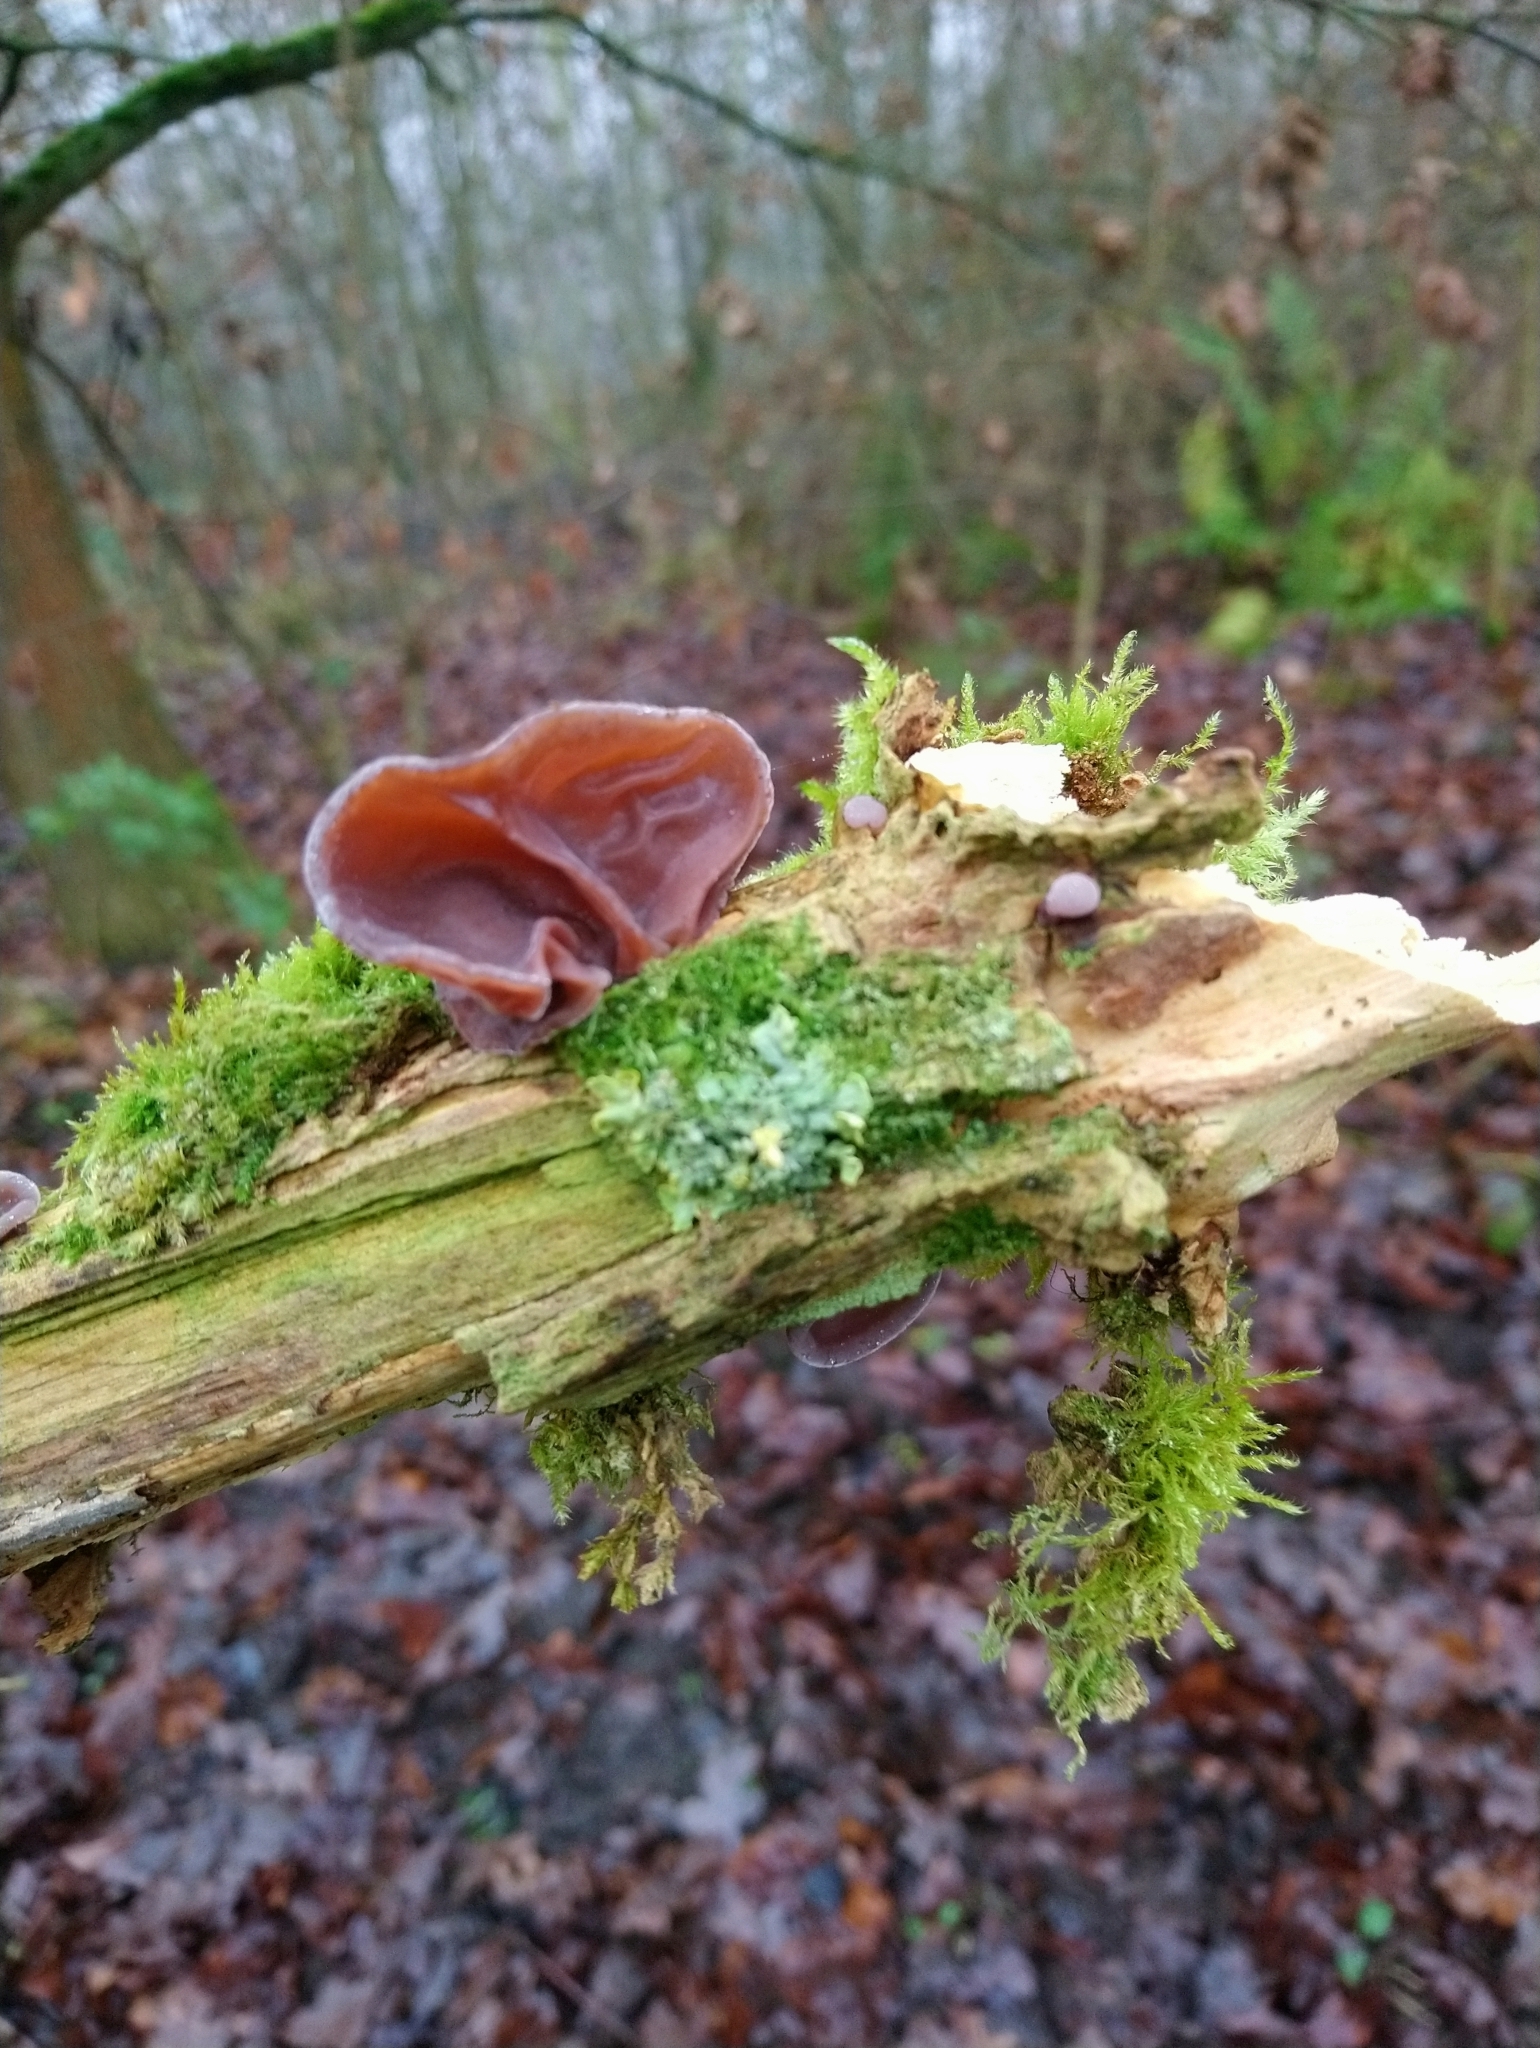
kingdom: Fungi
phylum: Basidiomycota
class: Agaricomycetes
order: Auriculariales
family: Auriculariaceae
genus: Auricularia
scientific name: Auricularia auricula-judae
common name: Jelly ear
